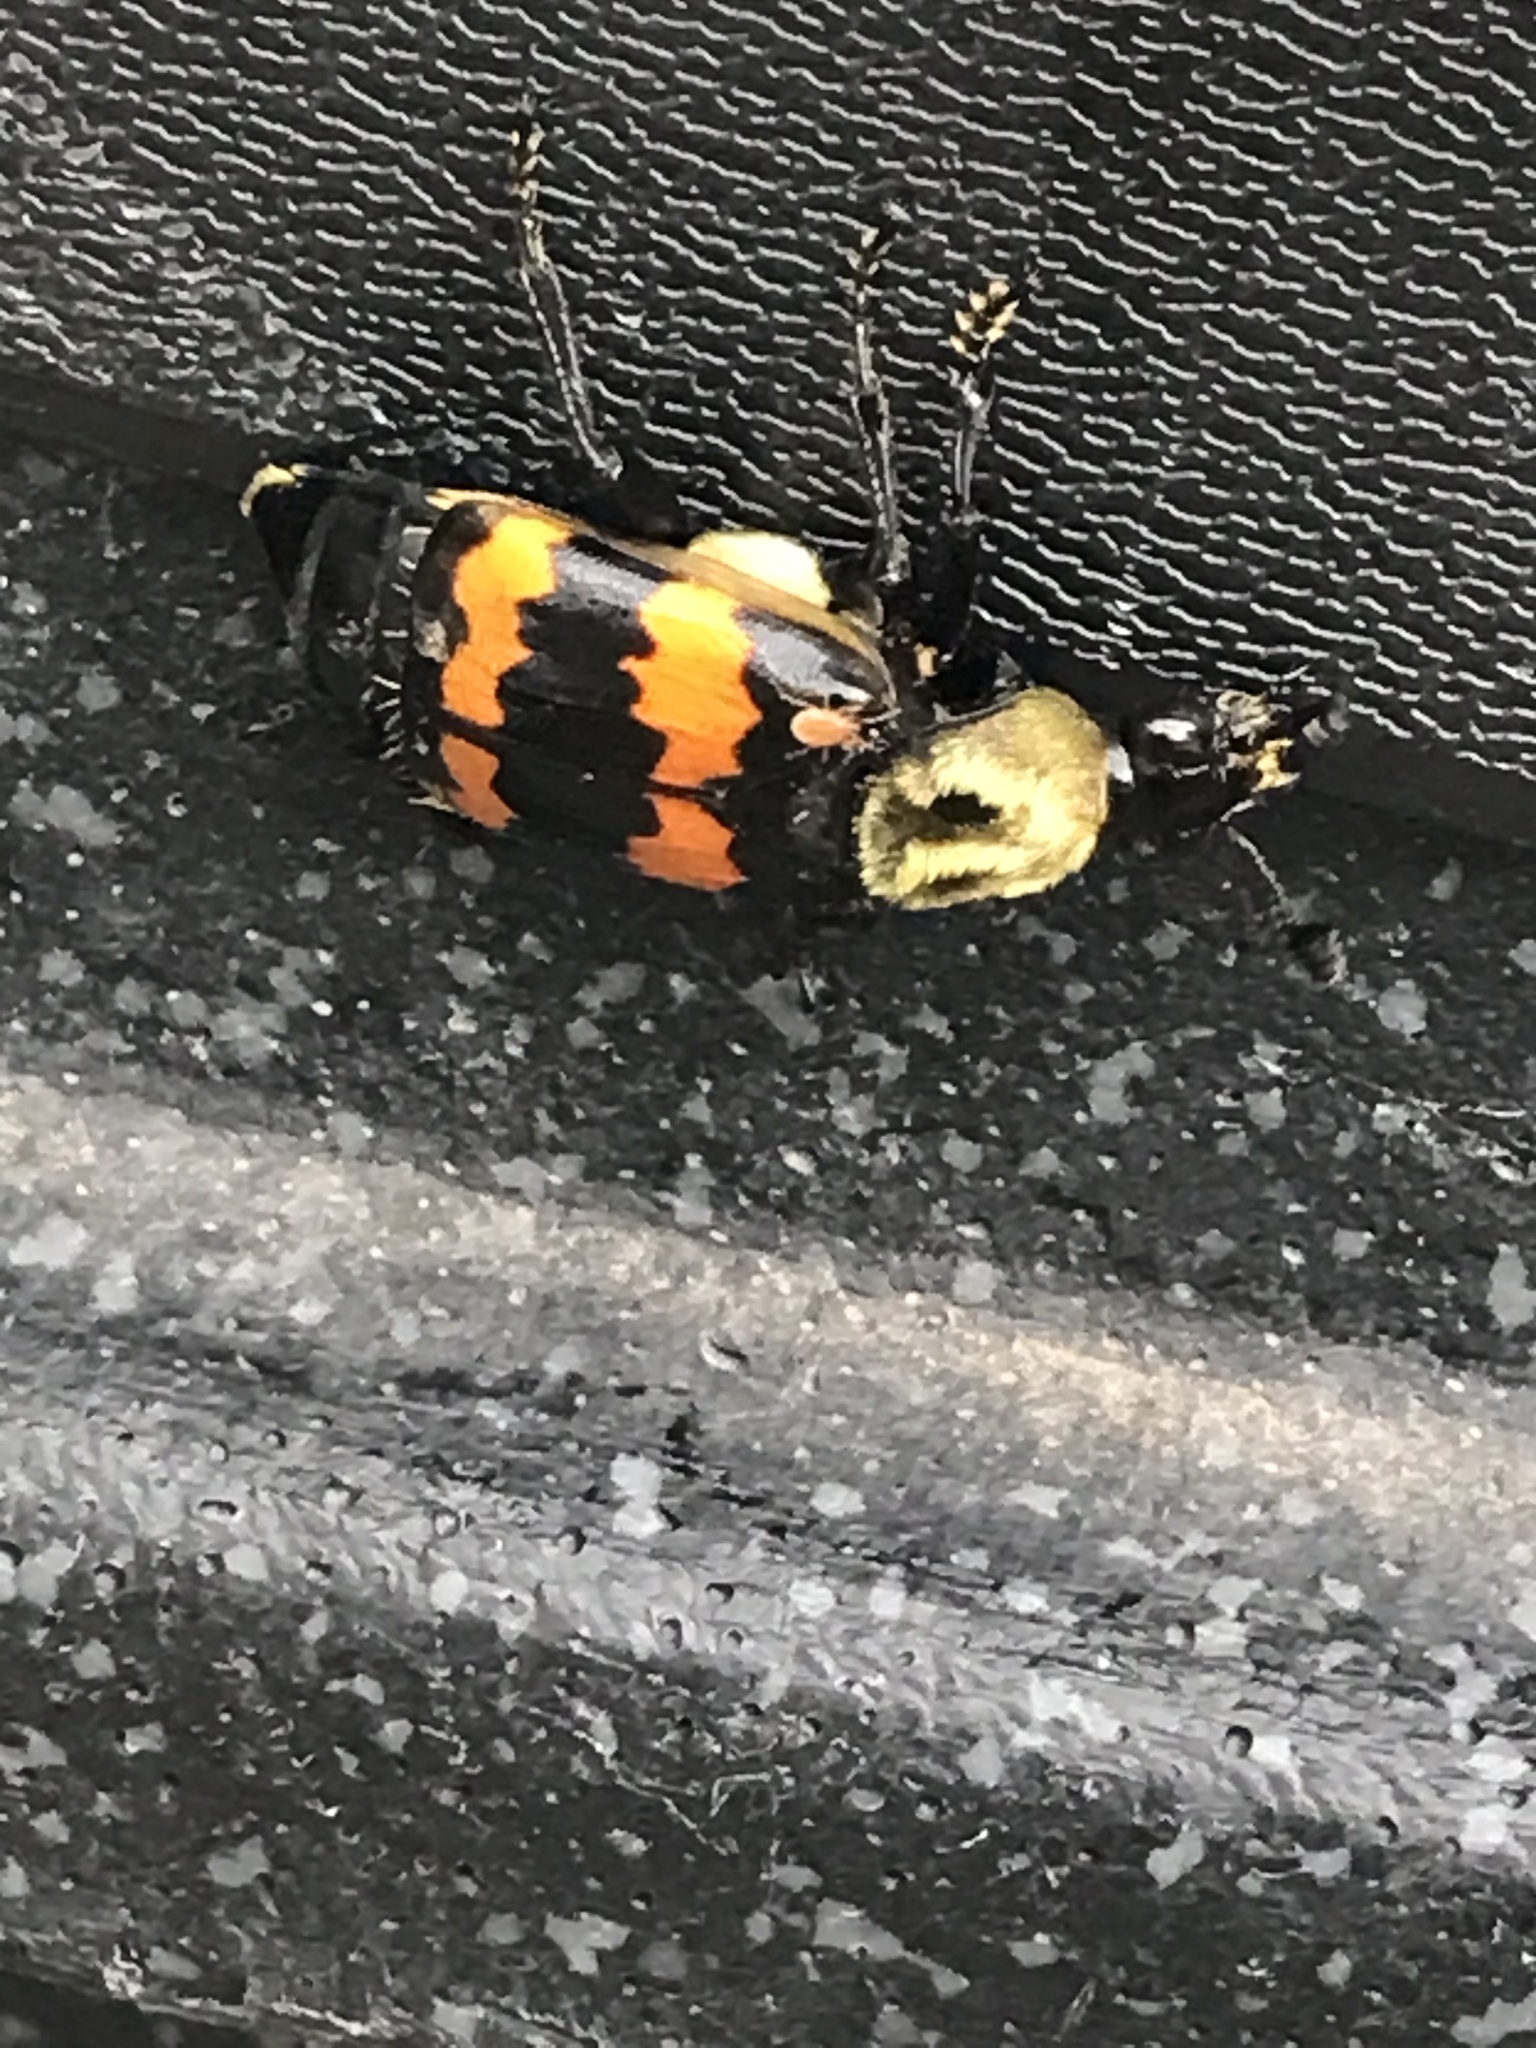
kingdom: Animalia
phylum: Arthropoda
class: Insecta
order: Coleoptera
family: Staphylinidae
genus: Nicrophorus
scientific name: Nicrophorus tomentosus
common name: Tomentose burying beetle
